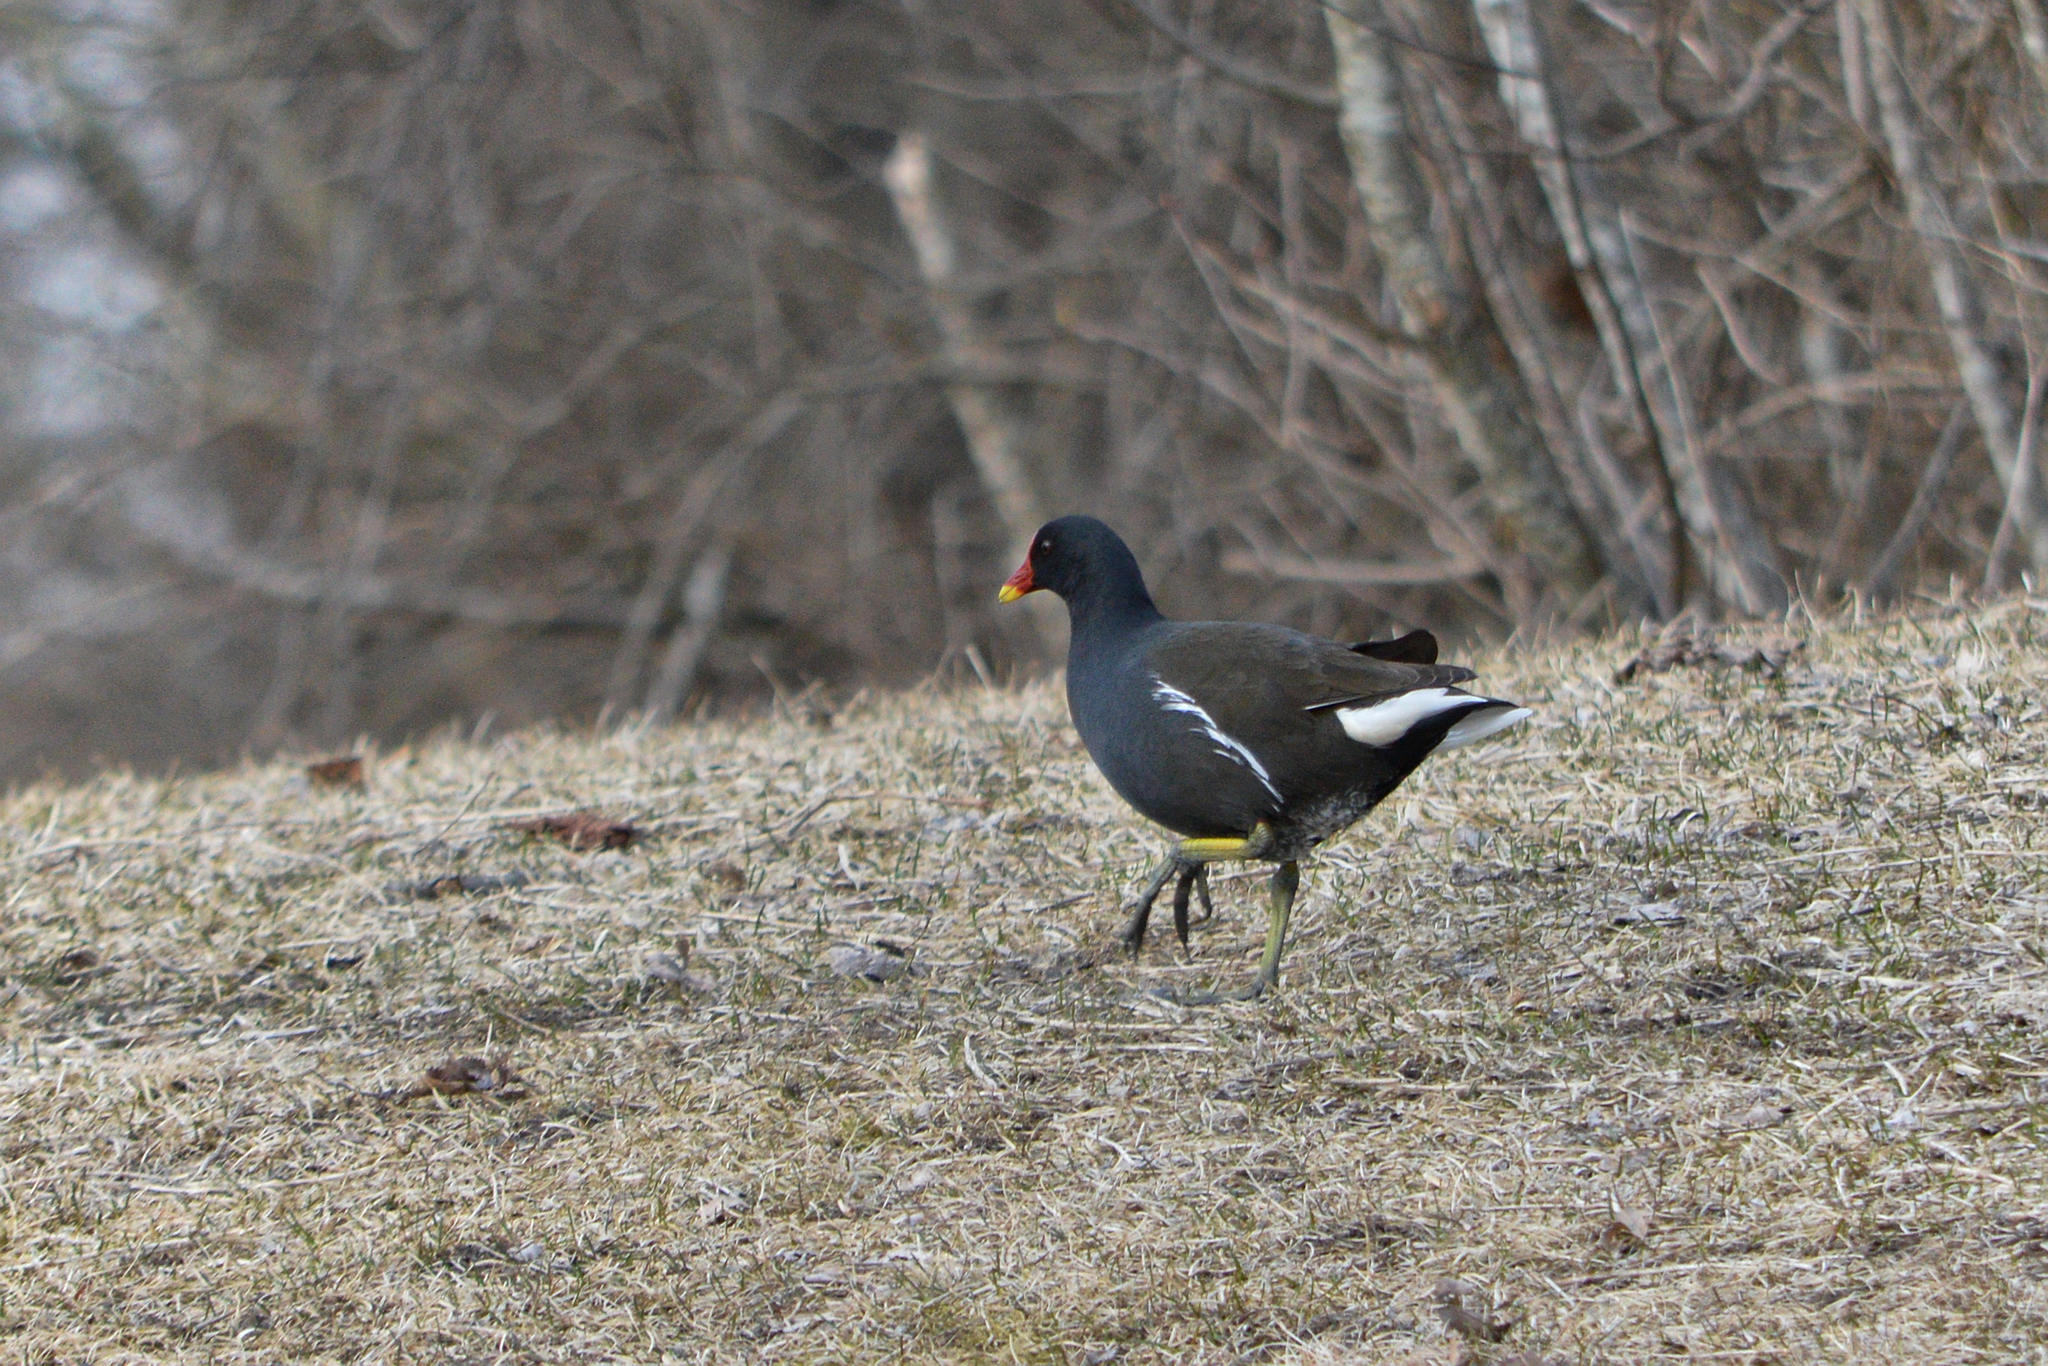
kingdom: Animalia
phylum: Chordata
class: Aves
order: Gruiformes
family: Rallidae
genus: Gallinula
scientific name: Gallinula chloropus
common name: Common moorhen
